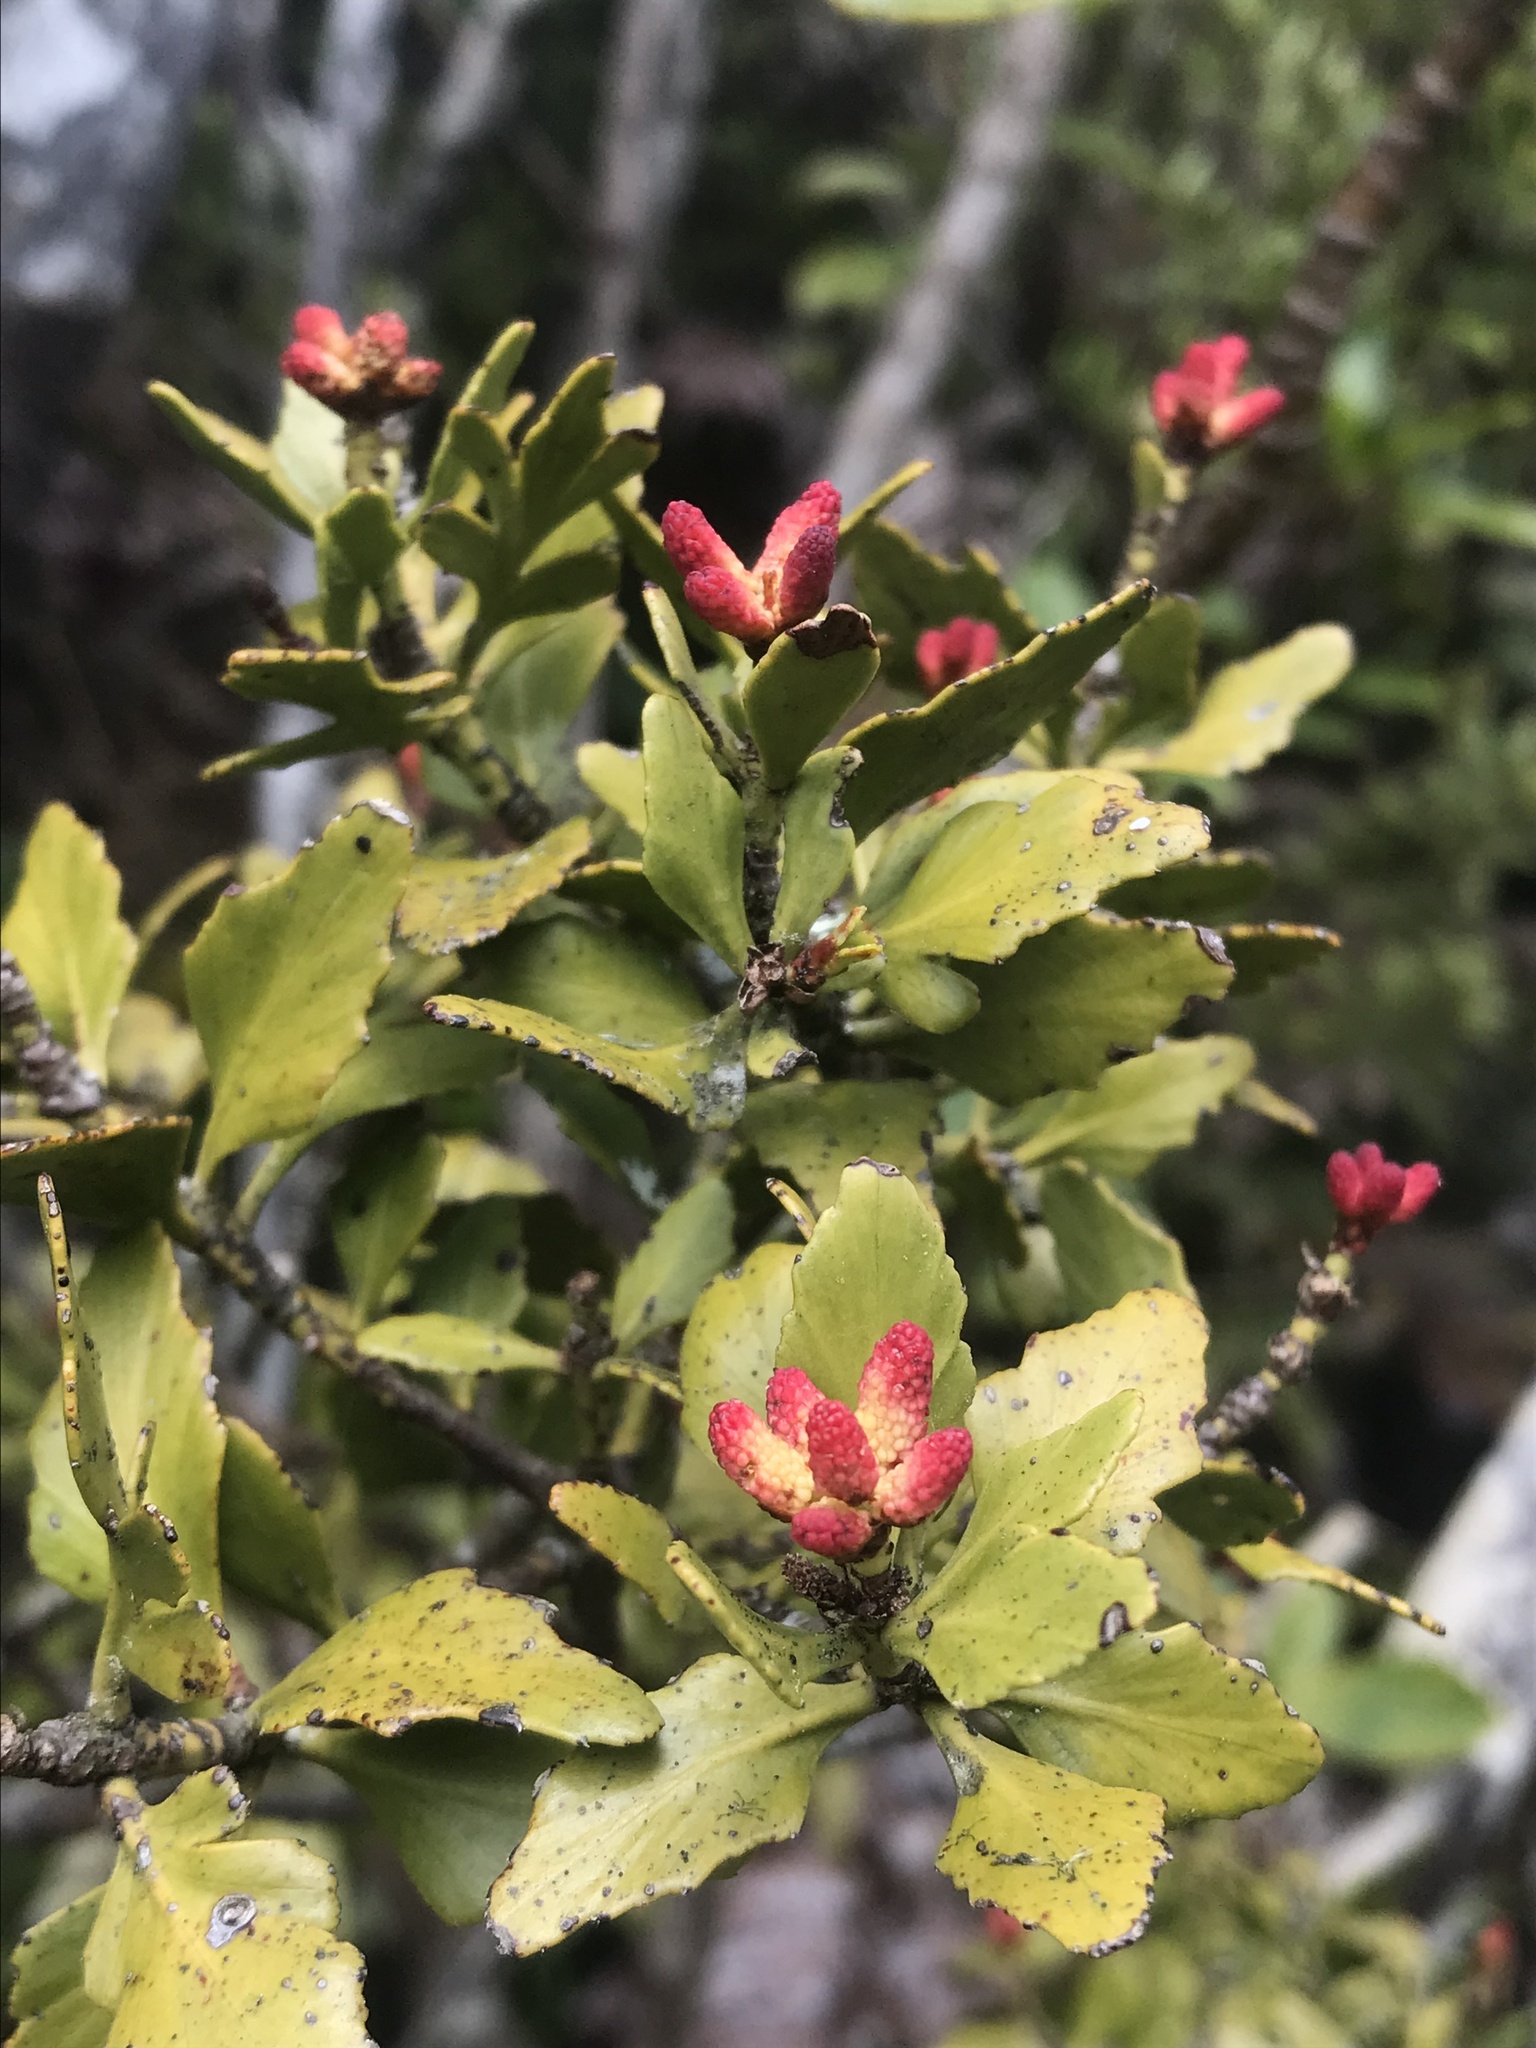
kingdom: Plantae
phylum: Tracheophyta
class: Pinopsida
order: Pinales
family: Phyllocladaceae
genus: Phyllocladus
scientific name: Phyllocladus trichomanoides
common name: Celery pine
